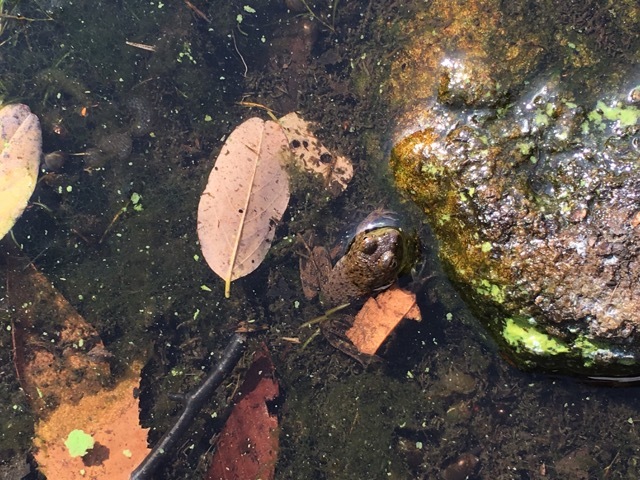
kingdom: Animalia
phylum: Chordata
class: Amphibia
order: Anura
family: Ranidae
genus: Lithobates
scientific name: Lithobates catesbeianus
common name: American bullfrog
